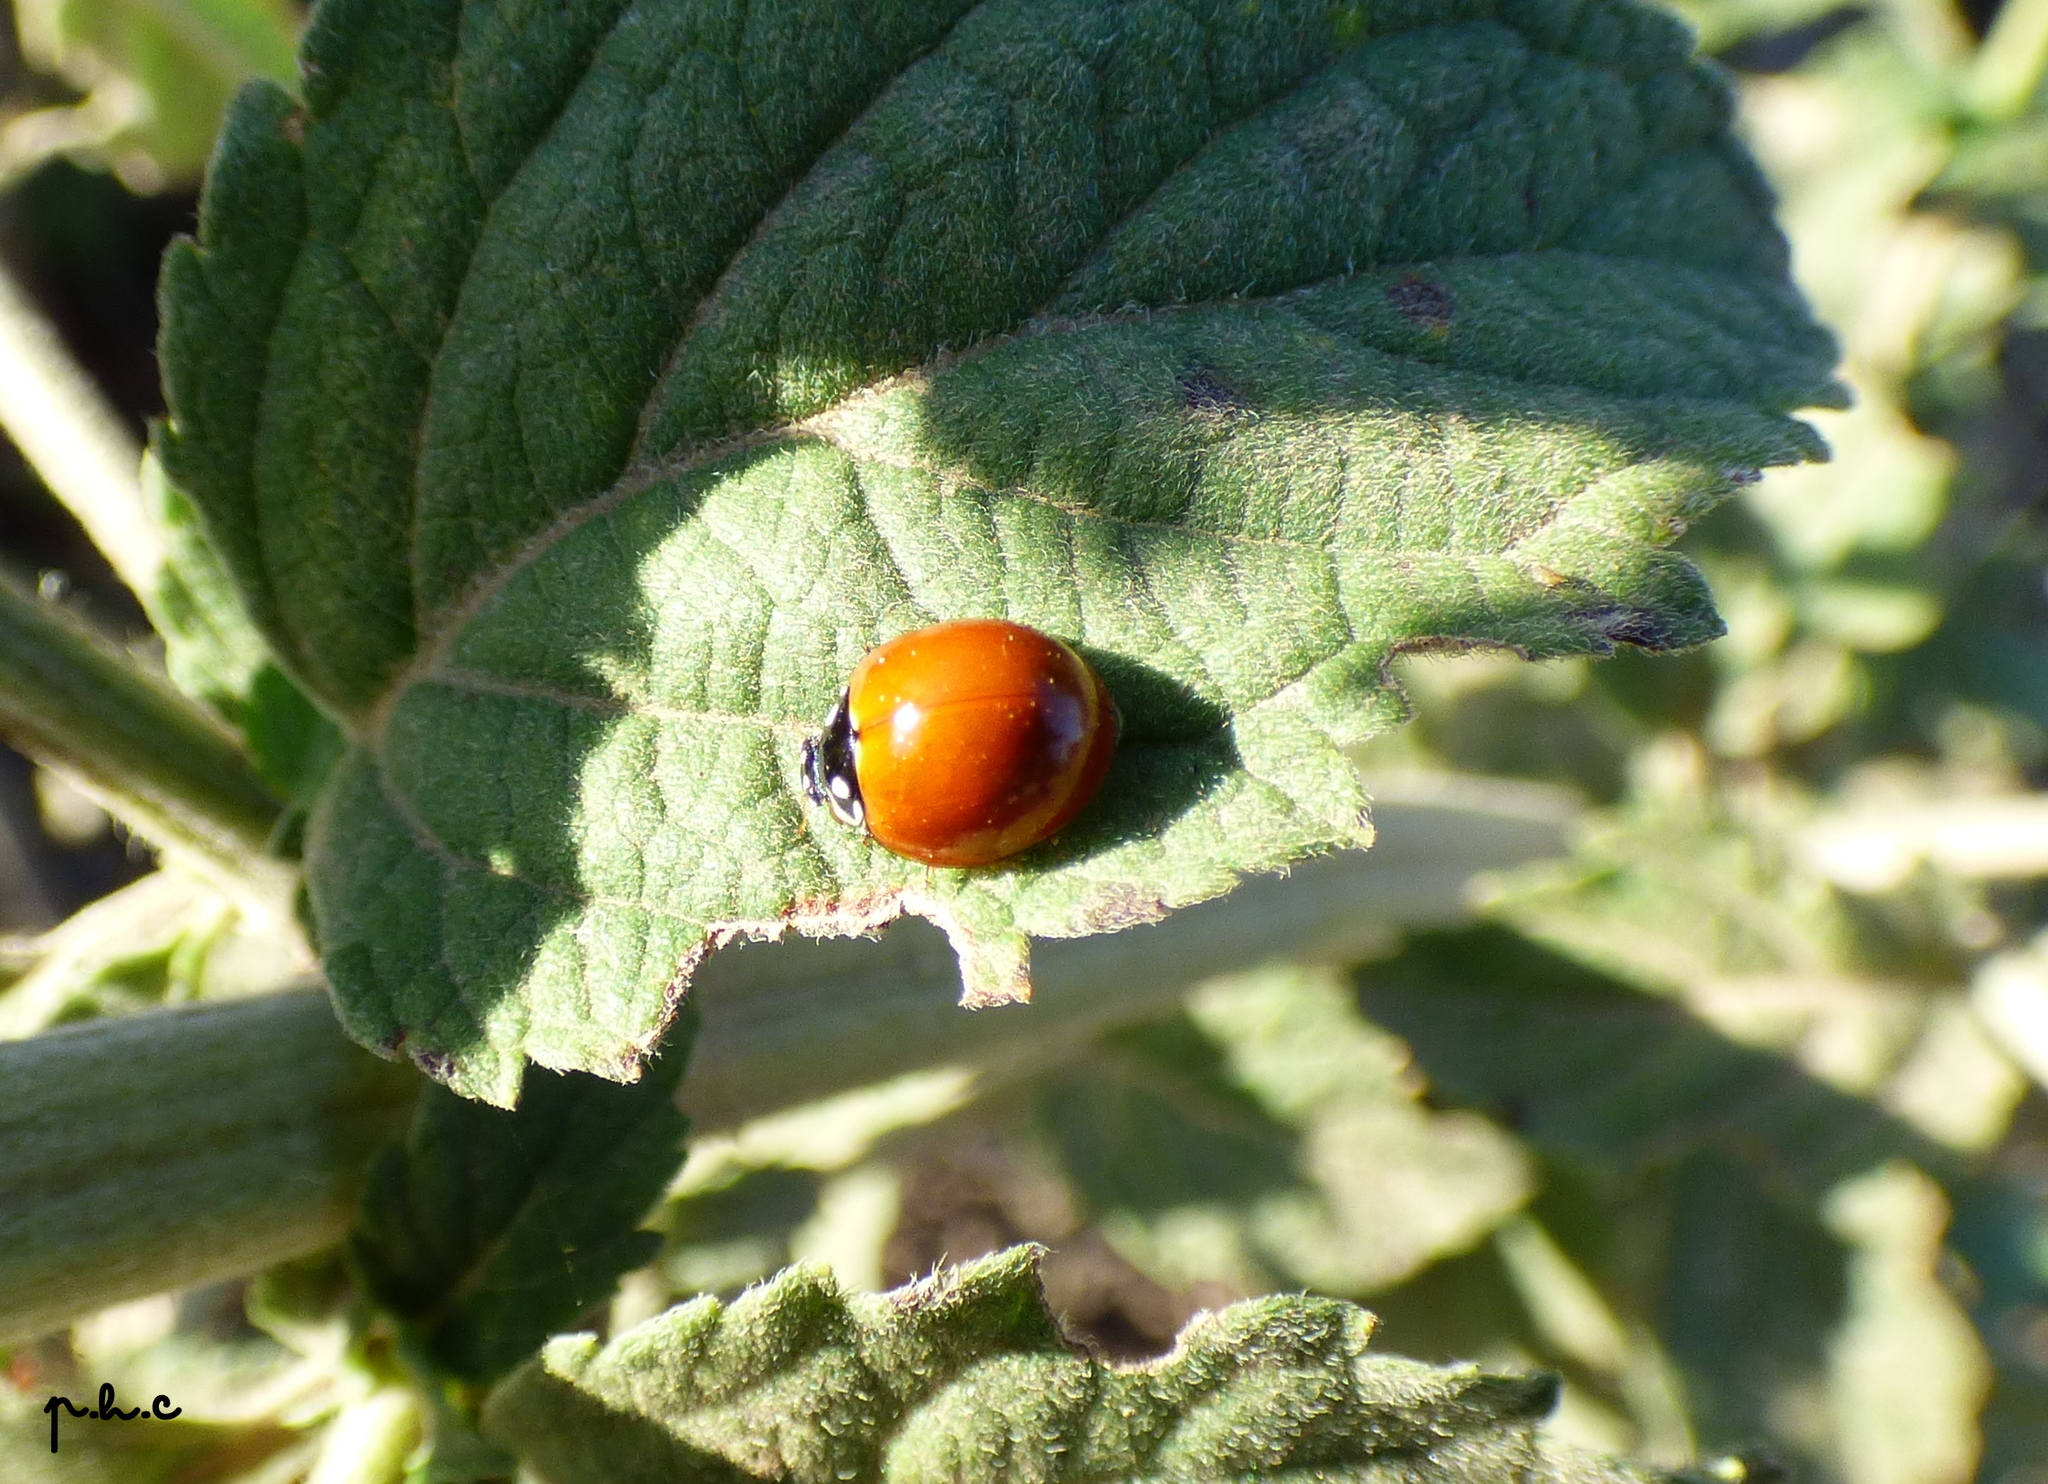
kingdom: Animalia
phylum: Arthropoda
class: Insecta
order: Coleoptera
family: Coccinellidae
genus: Cycloneda
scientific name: Cycloneda sanguinea
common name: Ladybird beetle
